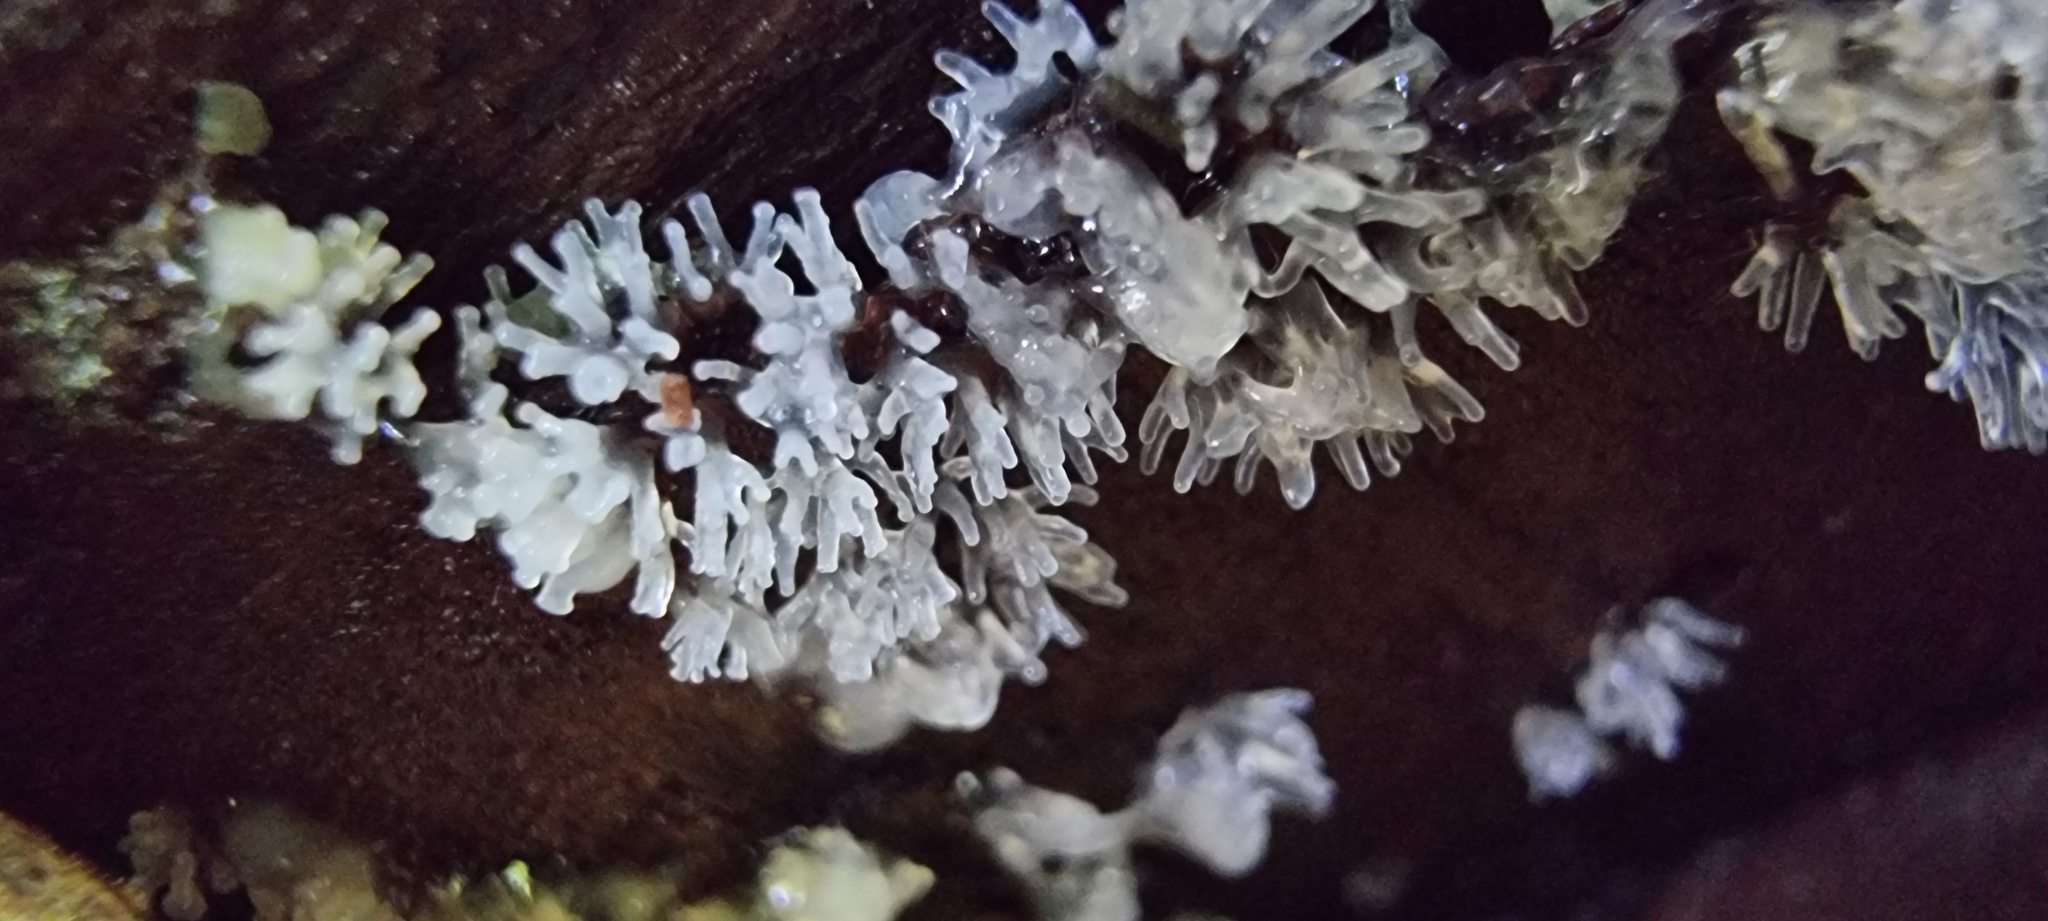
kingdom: Protozoa
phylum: Mycetozoa
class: Protosteliomycetes
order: Ceratiomyxales
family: Ceratiomyxaceae
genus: Ceratiomyxa
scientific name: Ceratiomyxa fruticulosa
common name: Honeycomb coral slime mold
